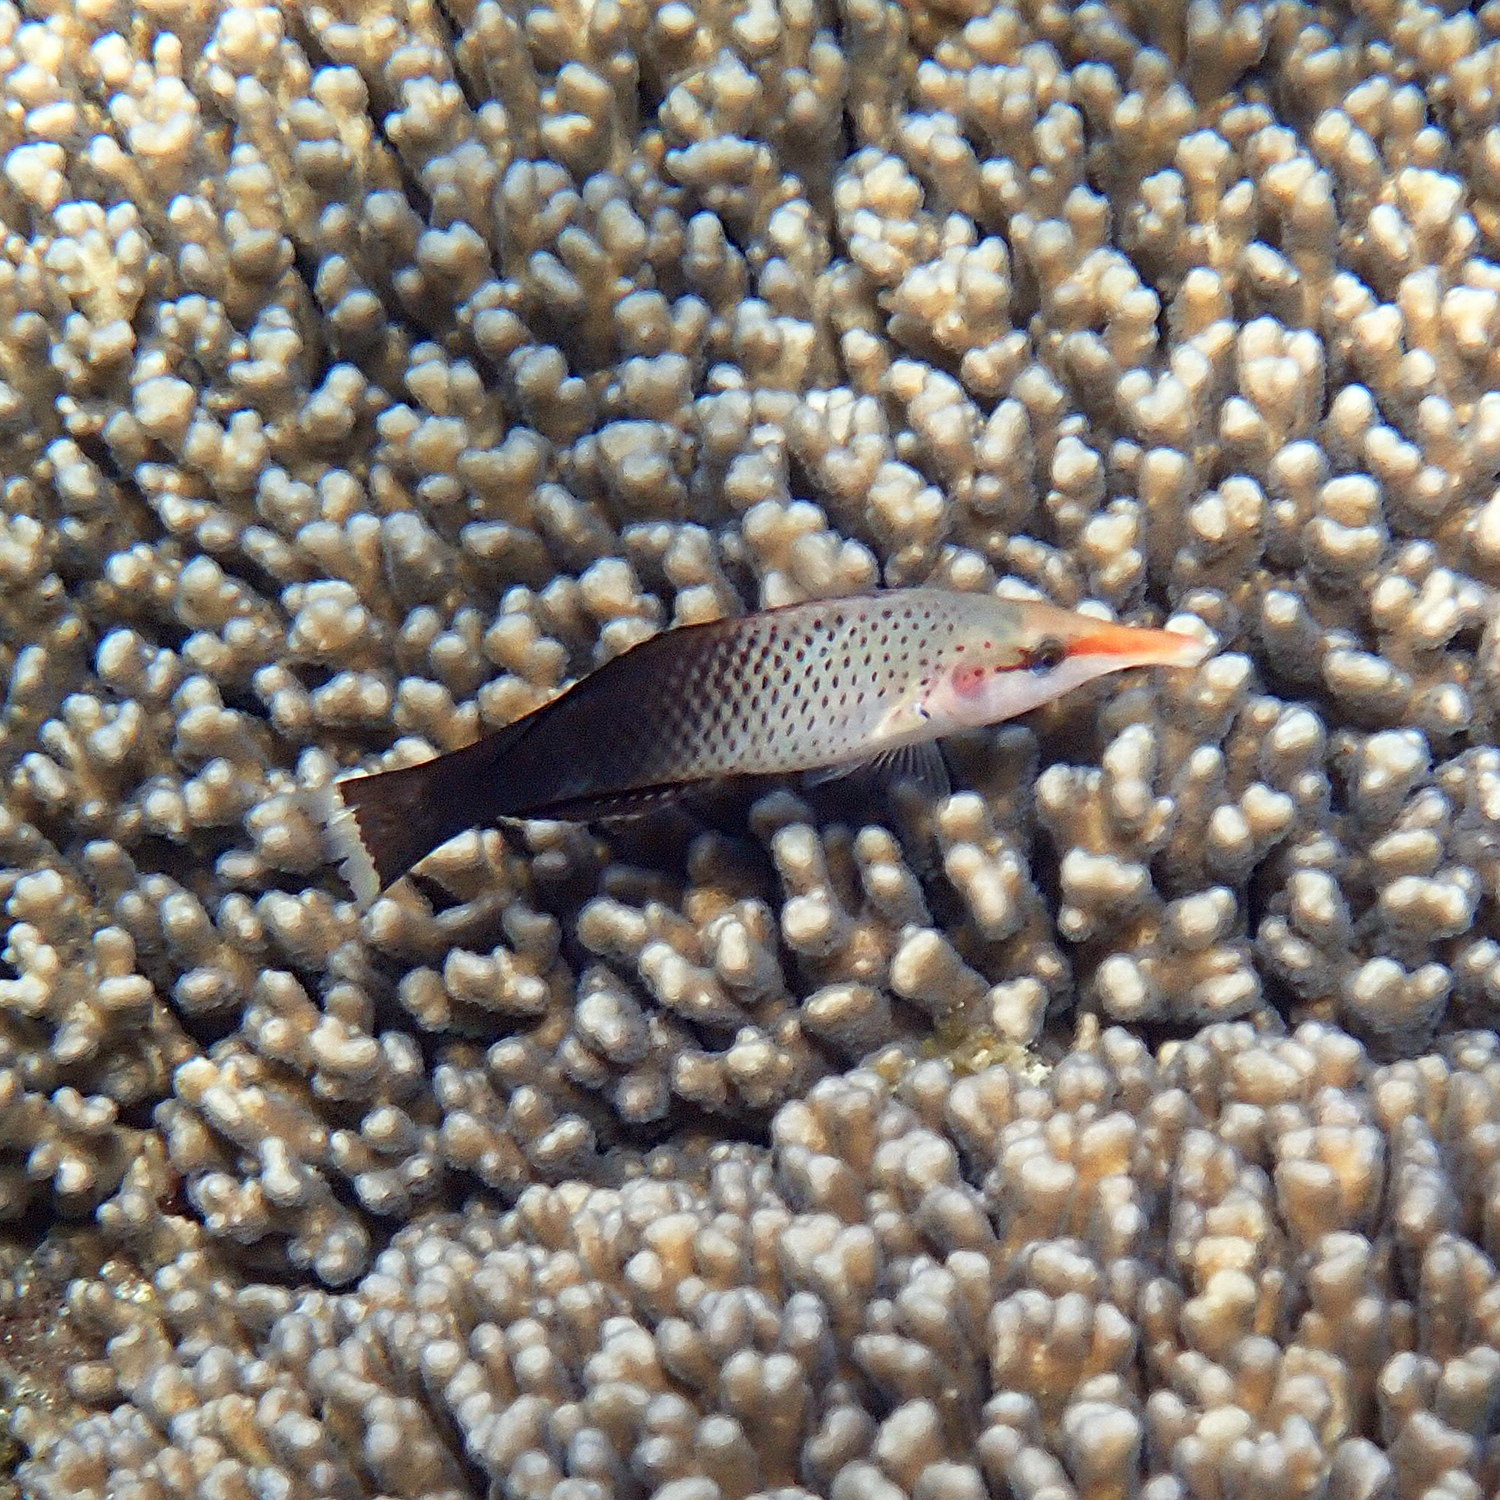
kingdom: Animalia
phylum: Chordata
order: Perciformes
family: Labridae
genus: Gomphosus
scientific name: Gomphosus varius
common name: Bird wrasse
